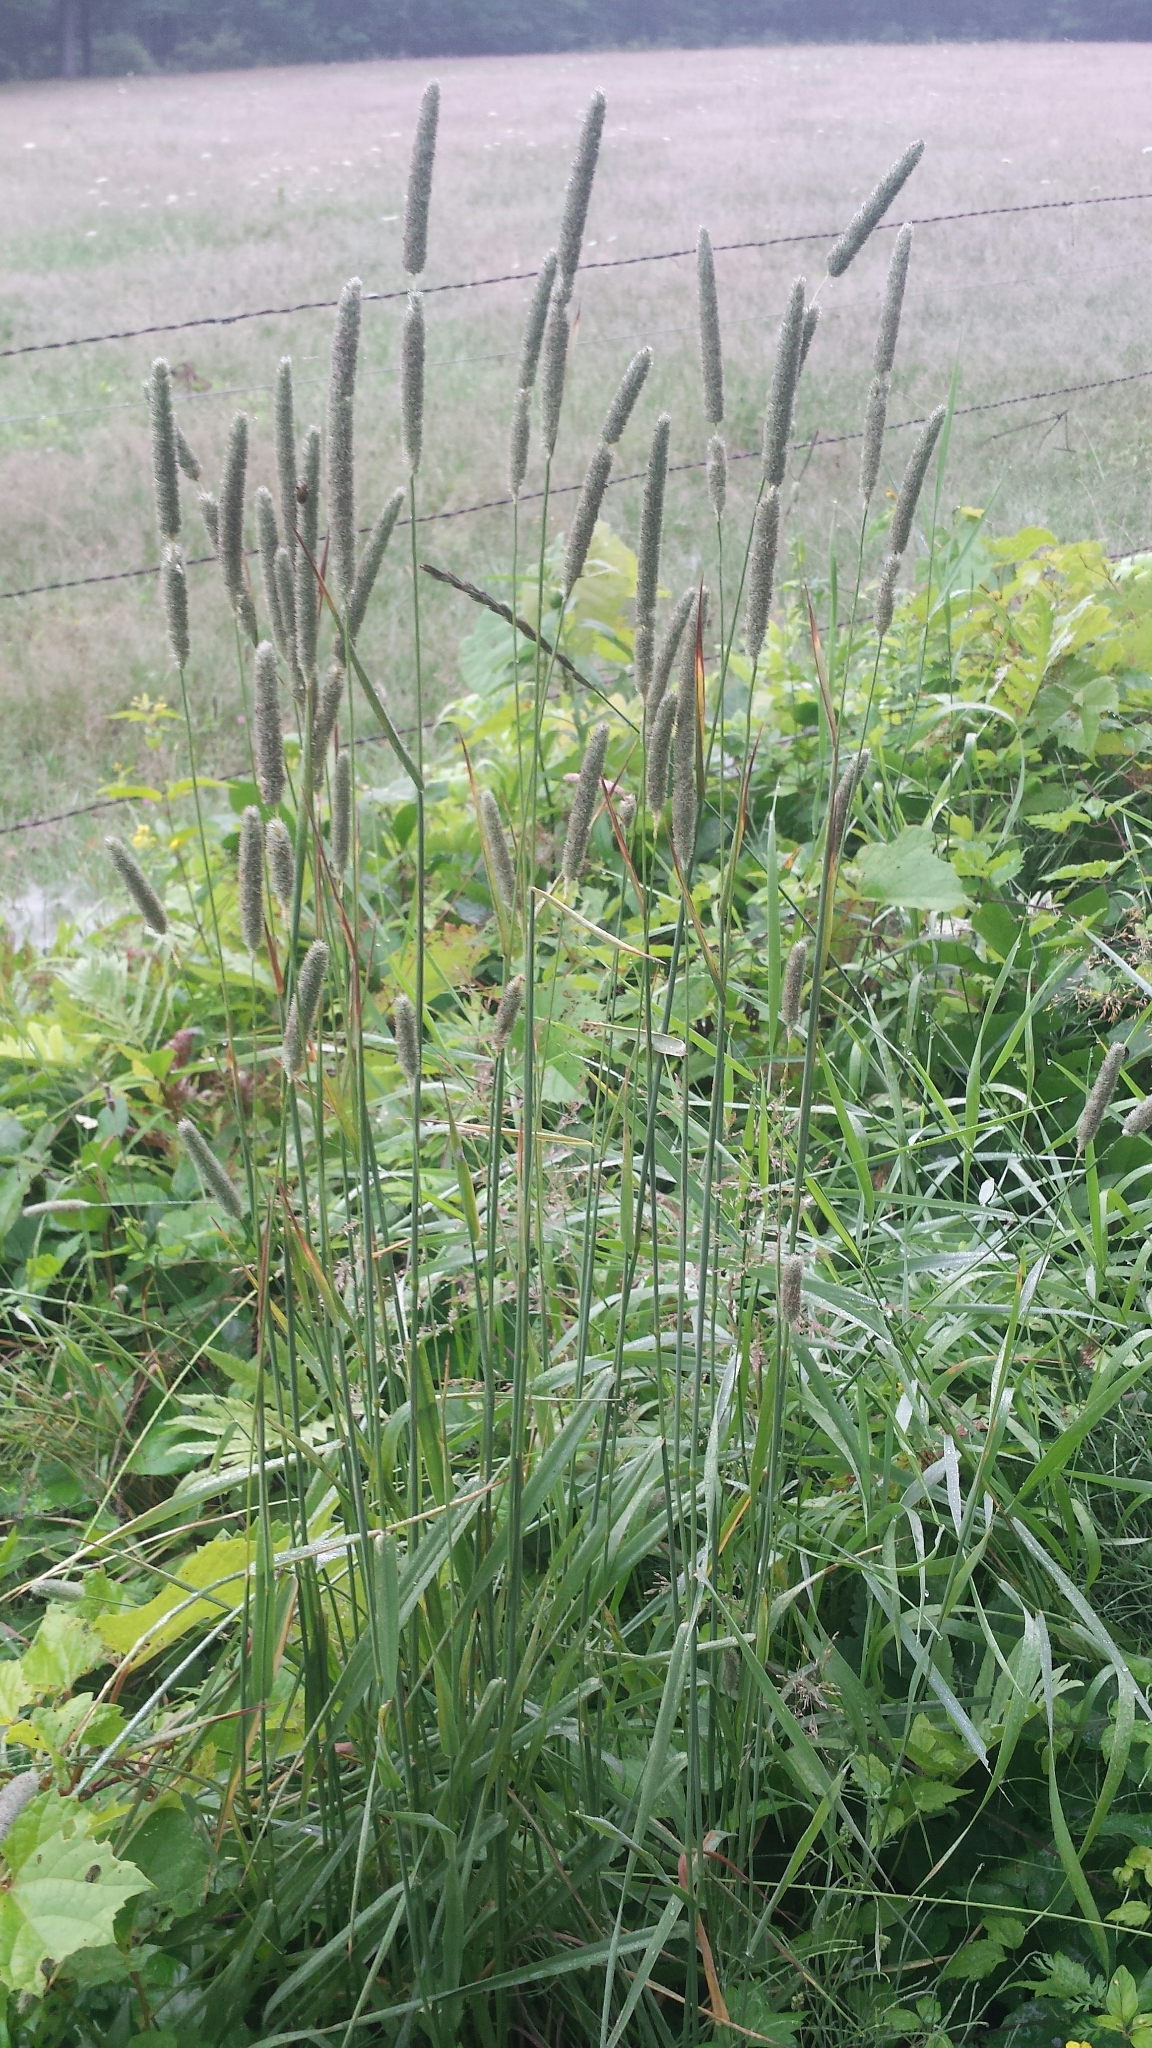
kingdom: Plantae
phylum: Tracheophyta
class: Liliopsida
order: Poales
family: Poaceae
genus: Phleum
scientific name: Phleum pratense
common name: Timothy grass
